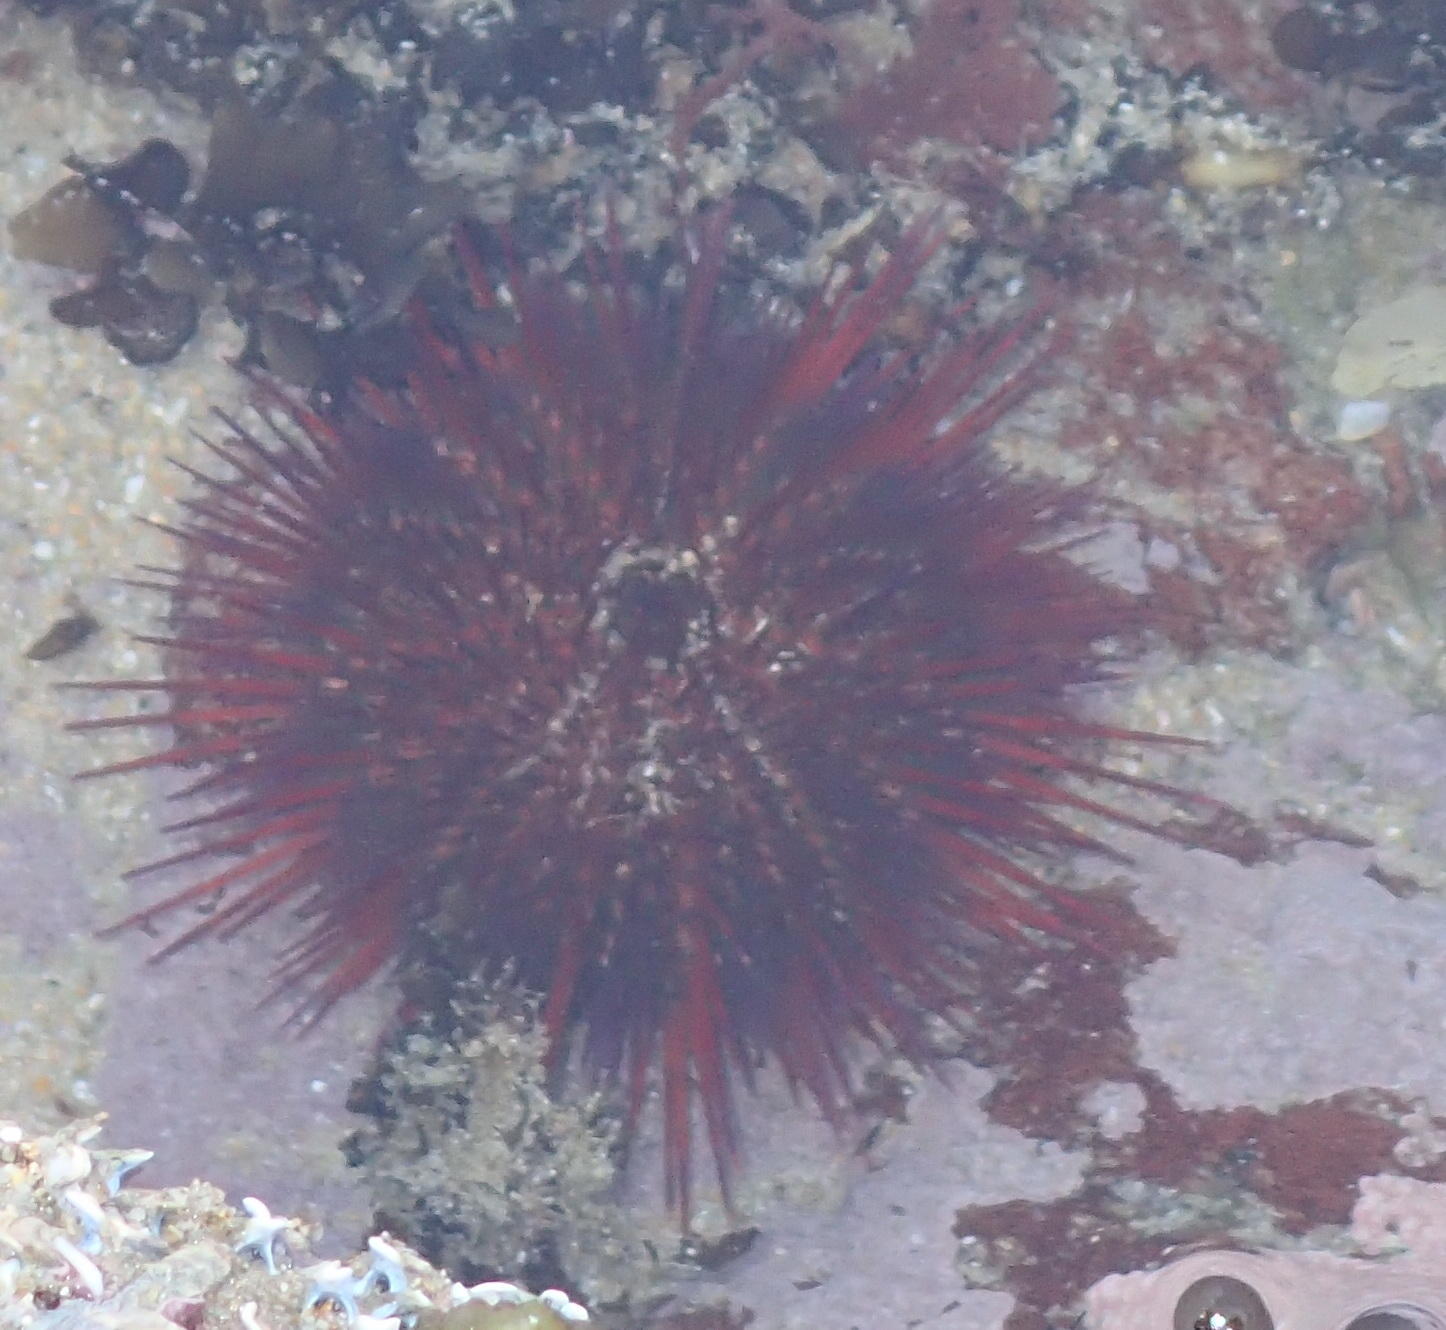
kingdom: Animalia
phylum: Echinodermata
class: Echinoidea
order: Camarodonta
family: Parechinidae
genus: Parechinus
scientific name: Parechinus angulosus
